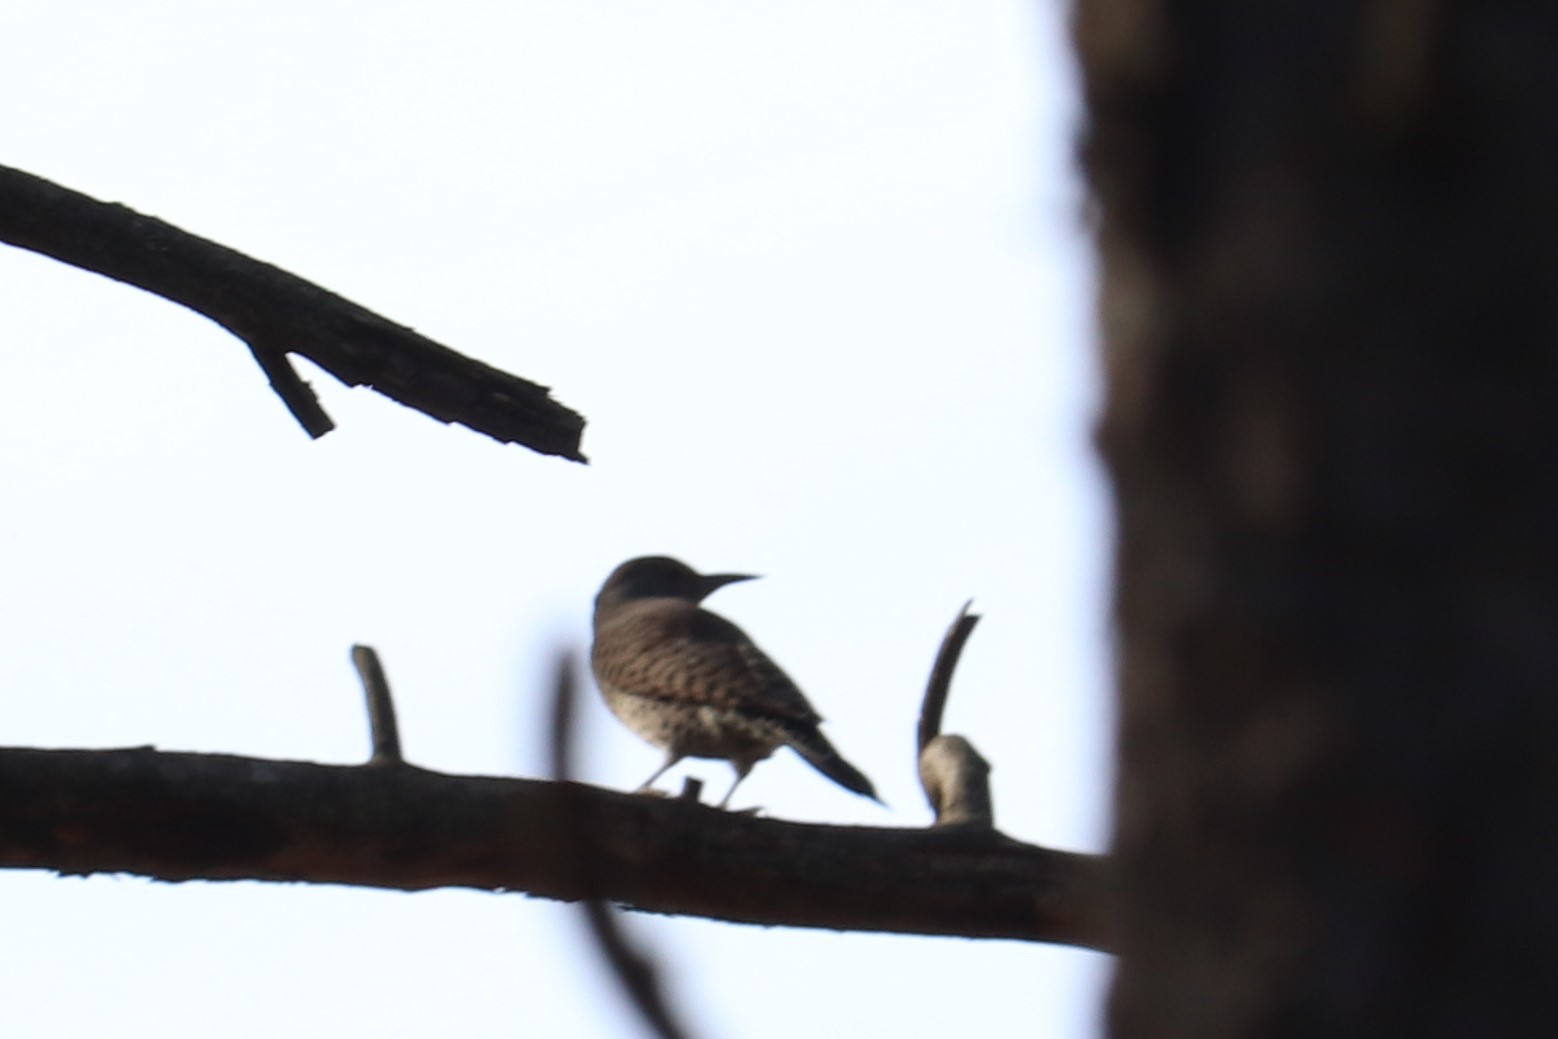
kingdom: Animalia
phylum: Chordata
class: Aves
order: Piciformes
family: Picidae
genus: Colaptes
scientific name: Colaptes auratus
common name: Northern flicker
